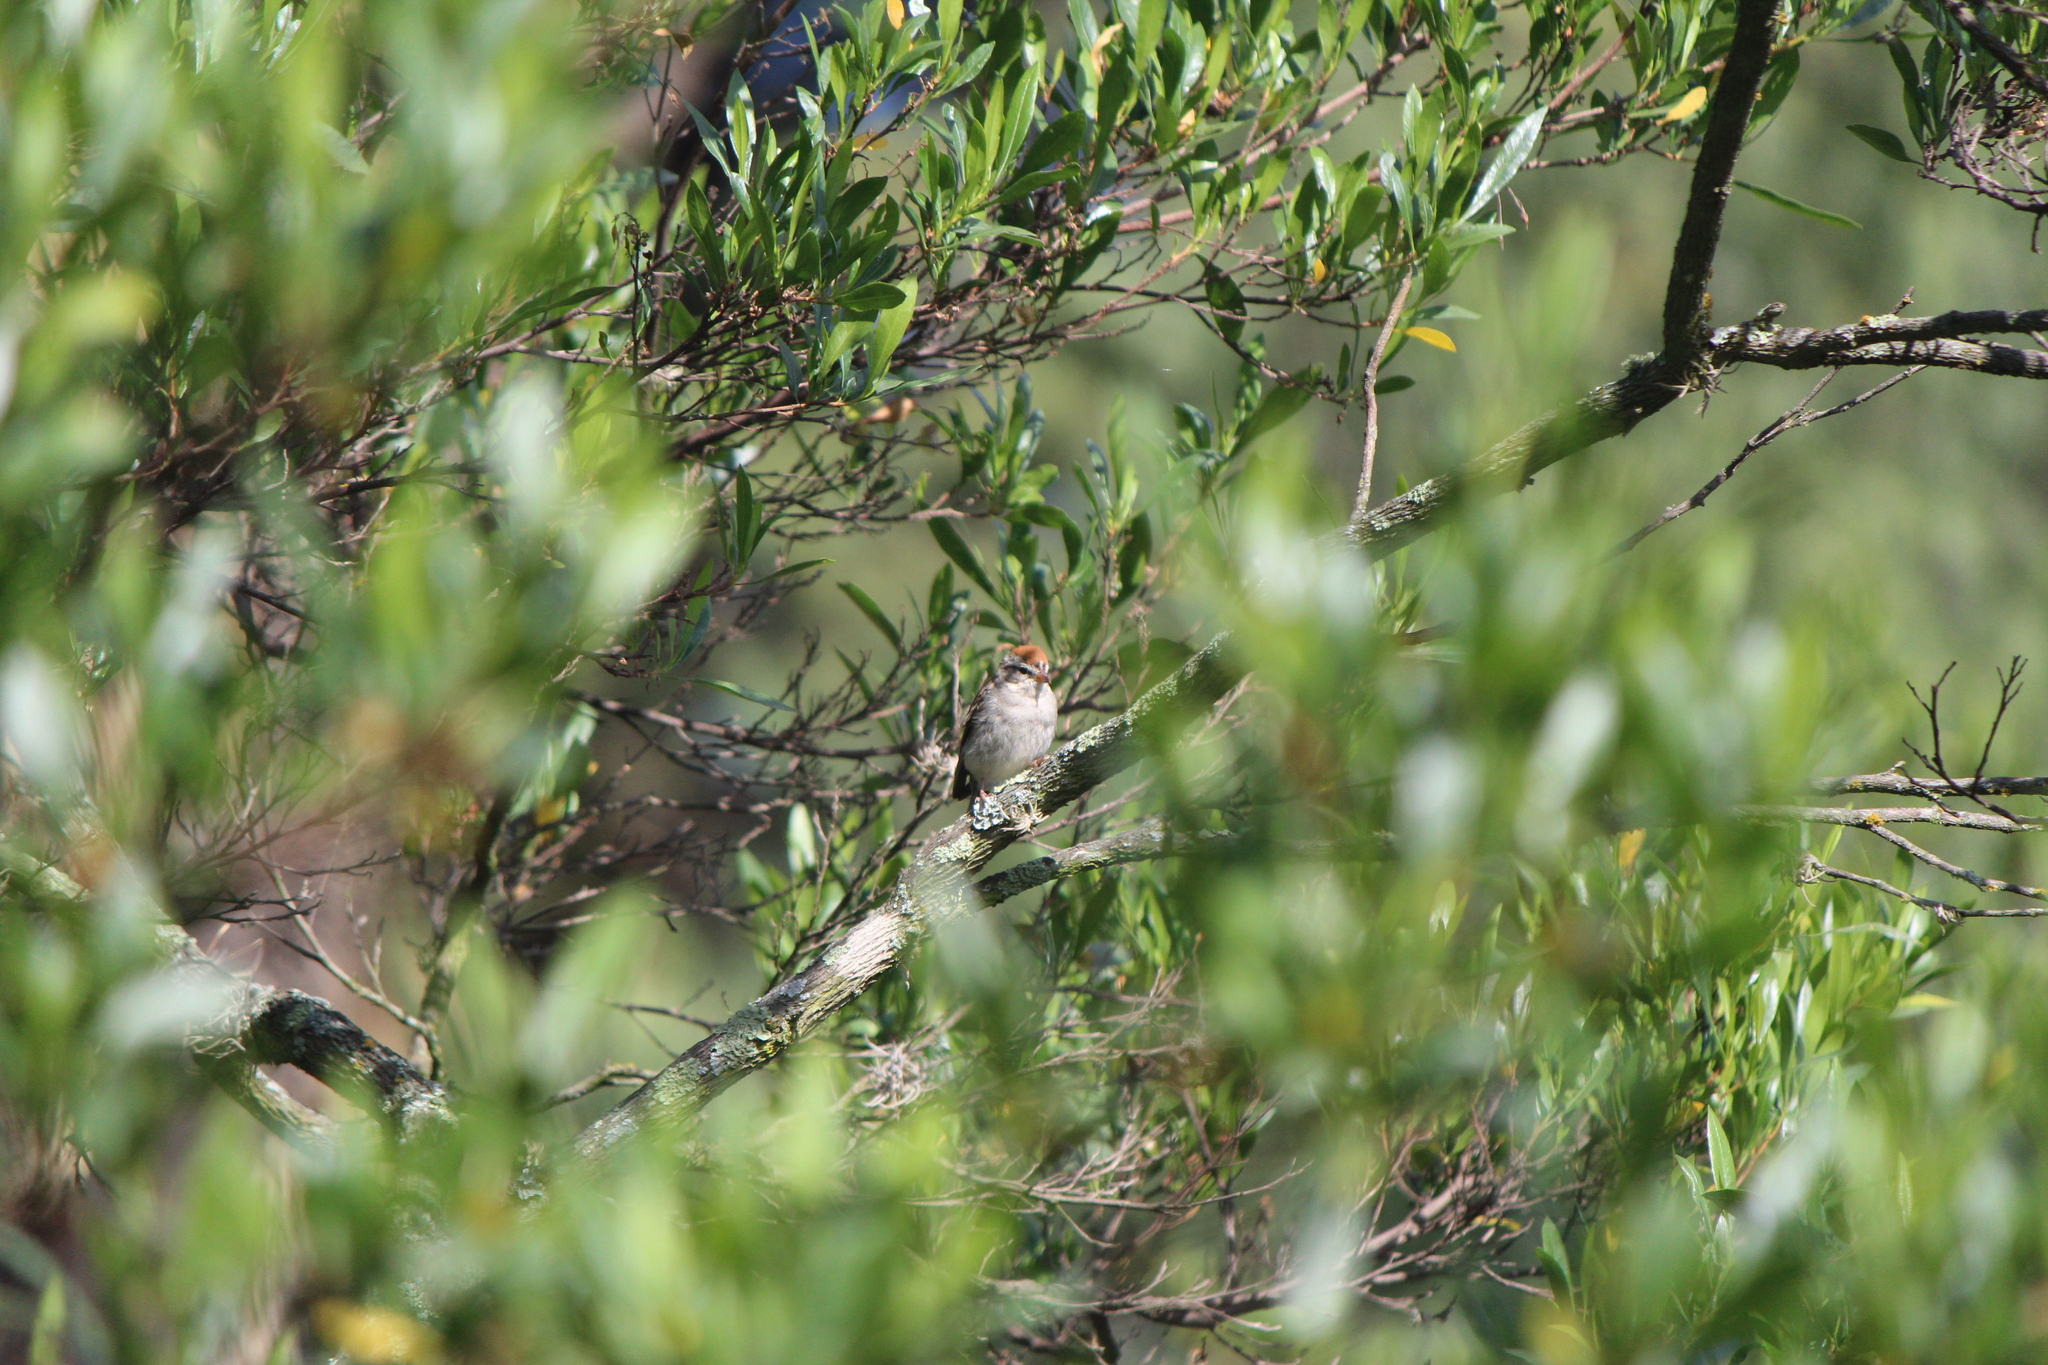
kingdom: Animalia
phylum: Chordata
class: Aves
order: Passeriformes
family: Passerellidae
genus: Spizella
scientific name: Spizella passerina
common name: Chipping sparrow
